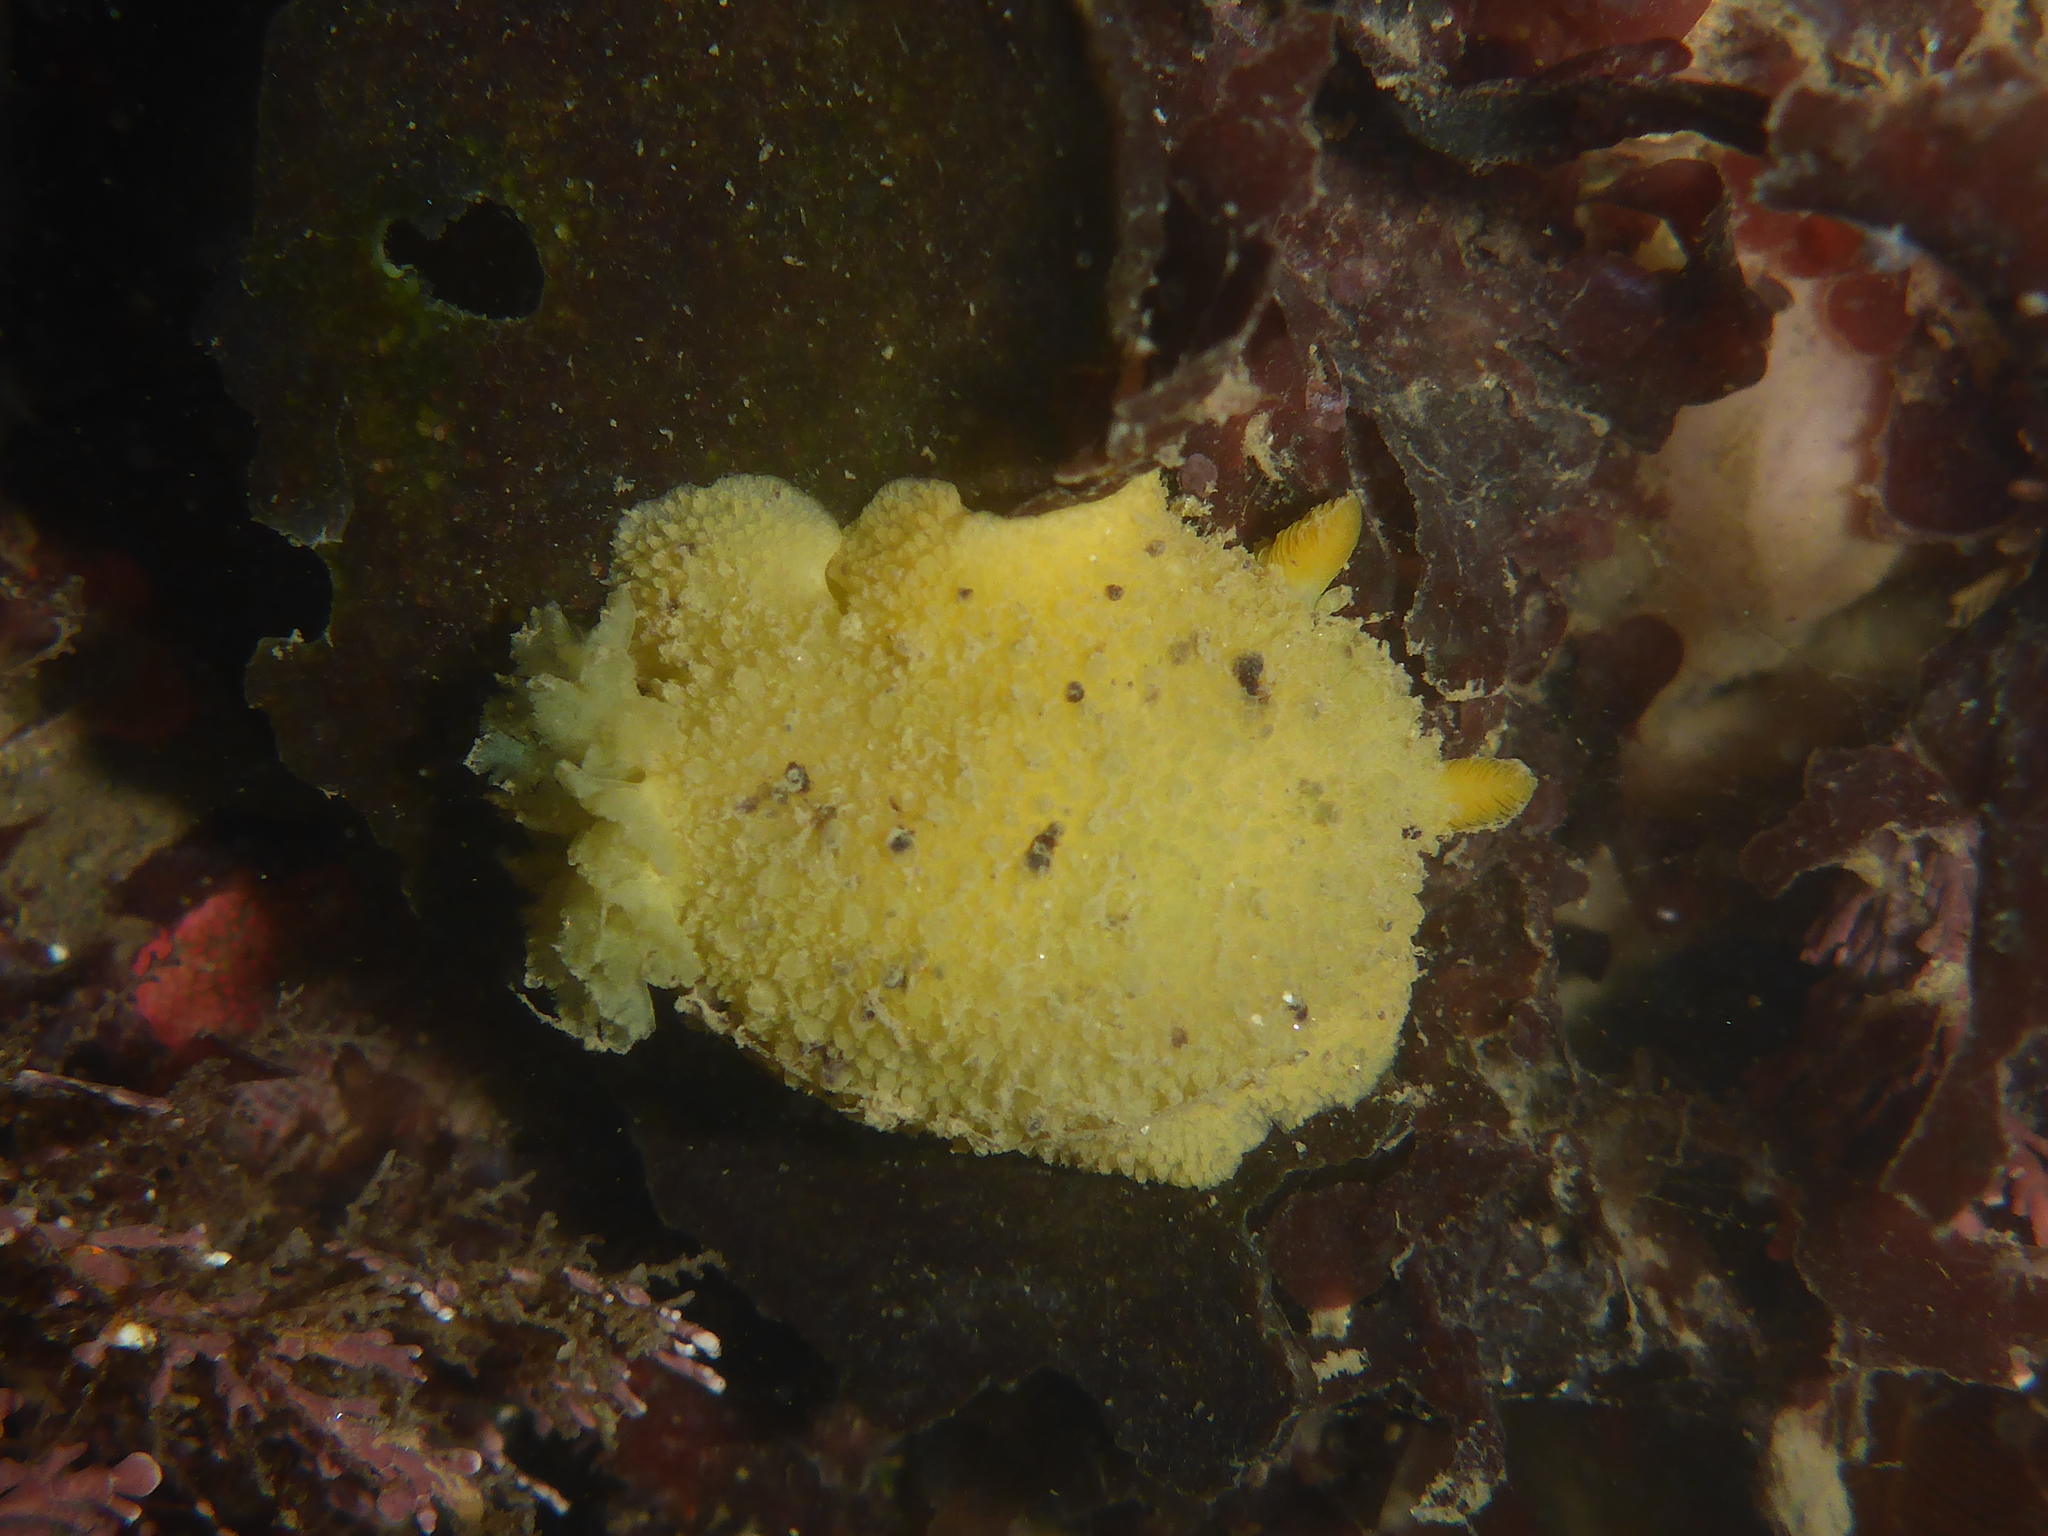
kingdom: Animalia
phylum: Mollusca
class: Gastropoda
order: Nudibranchia
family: Dorididae
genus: Doris
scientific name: Doris montereyensis
